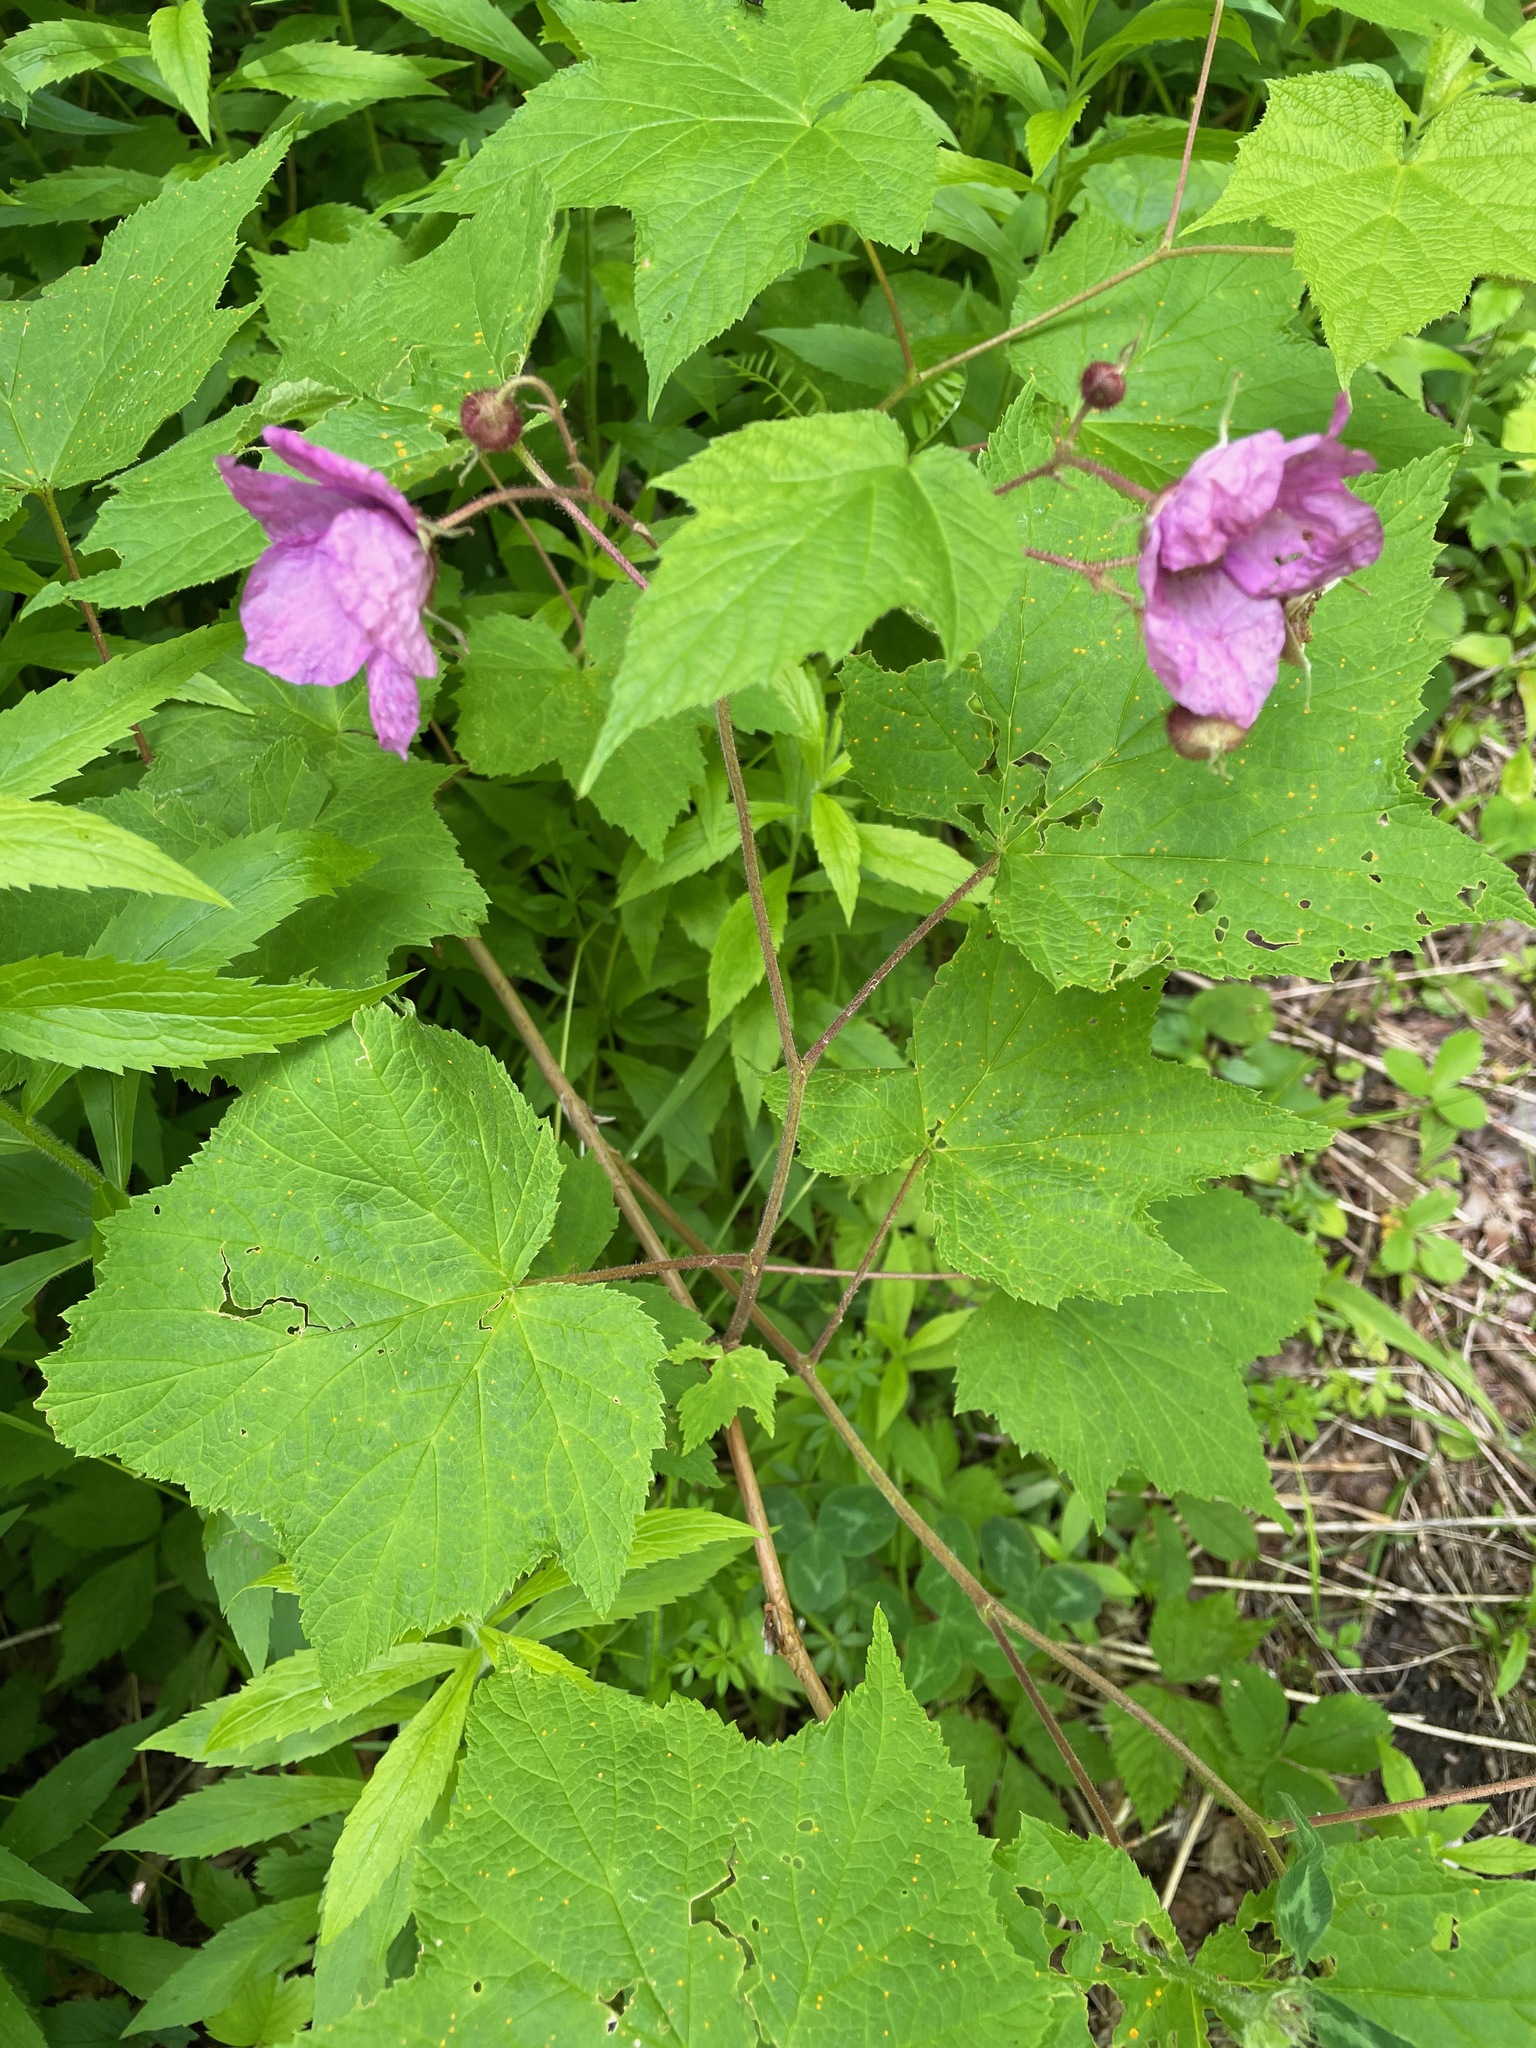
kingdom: Plantae
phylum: Tracheophyta
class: Magnoliopsida
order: Rosales
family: Rosaceae
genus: Rubus
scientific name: Rubus odoratus
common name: Purple-flowered raspberry
